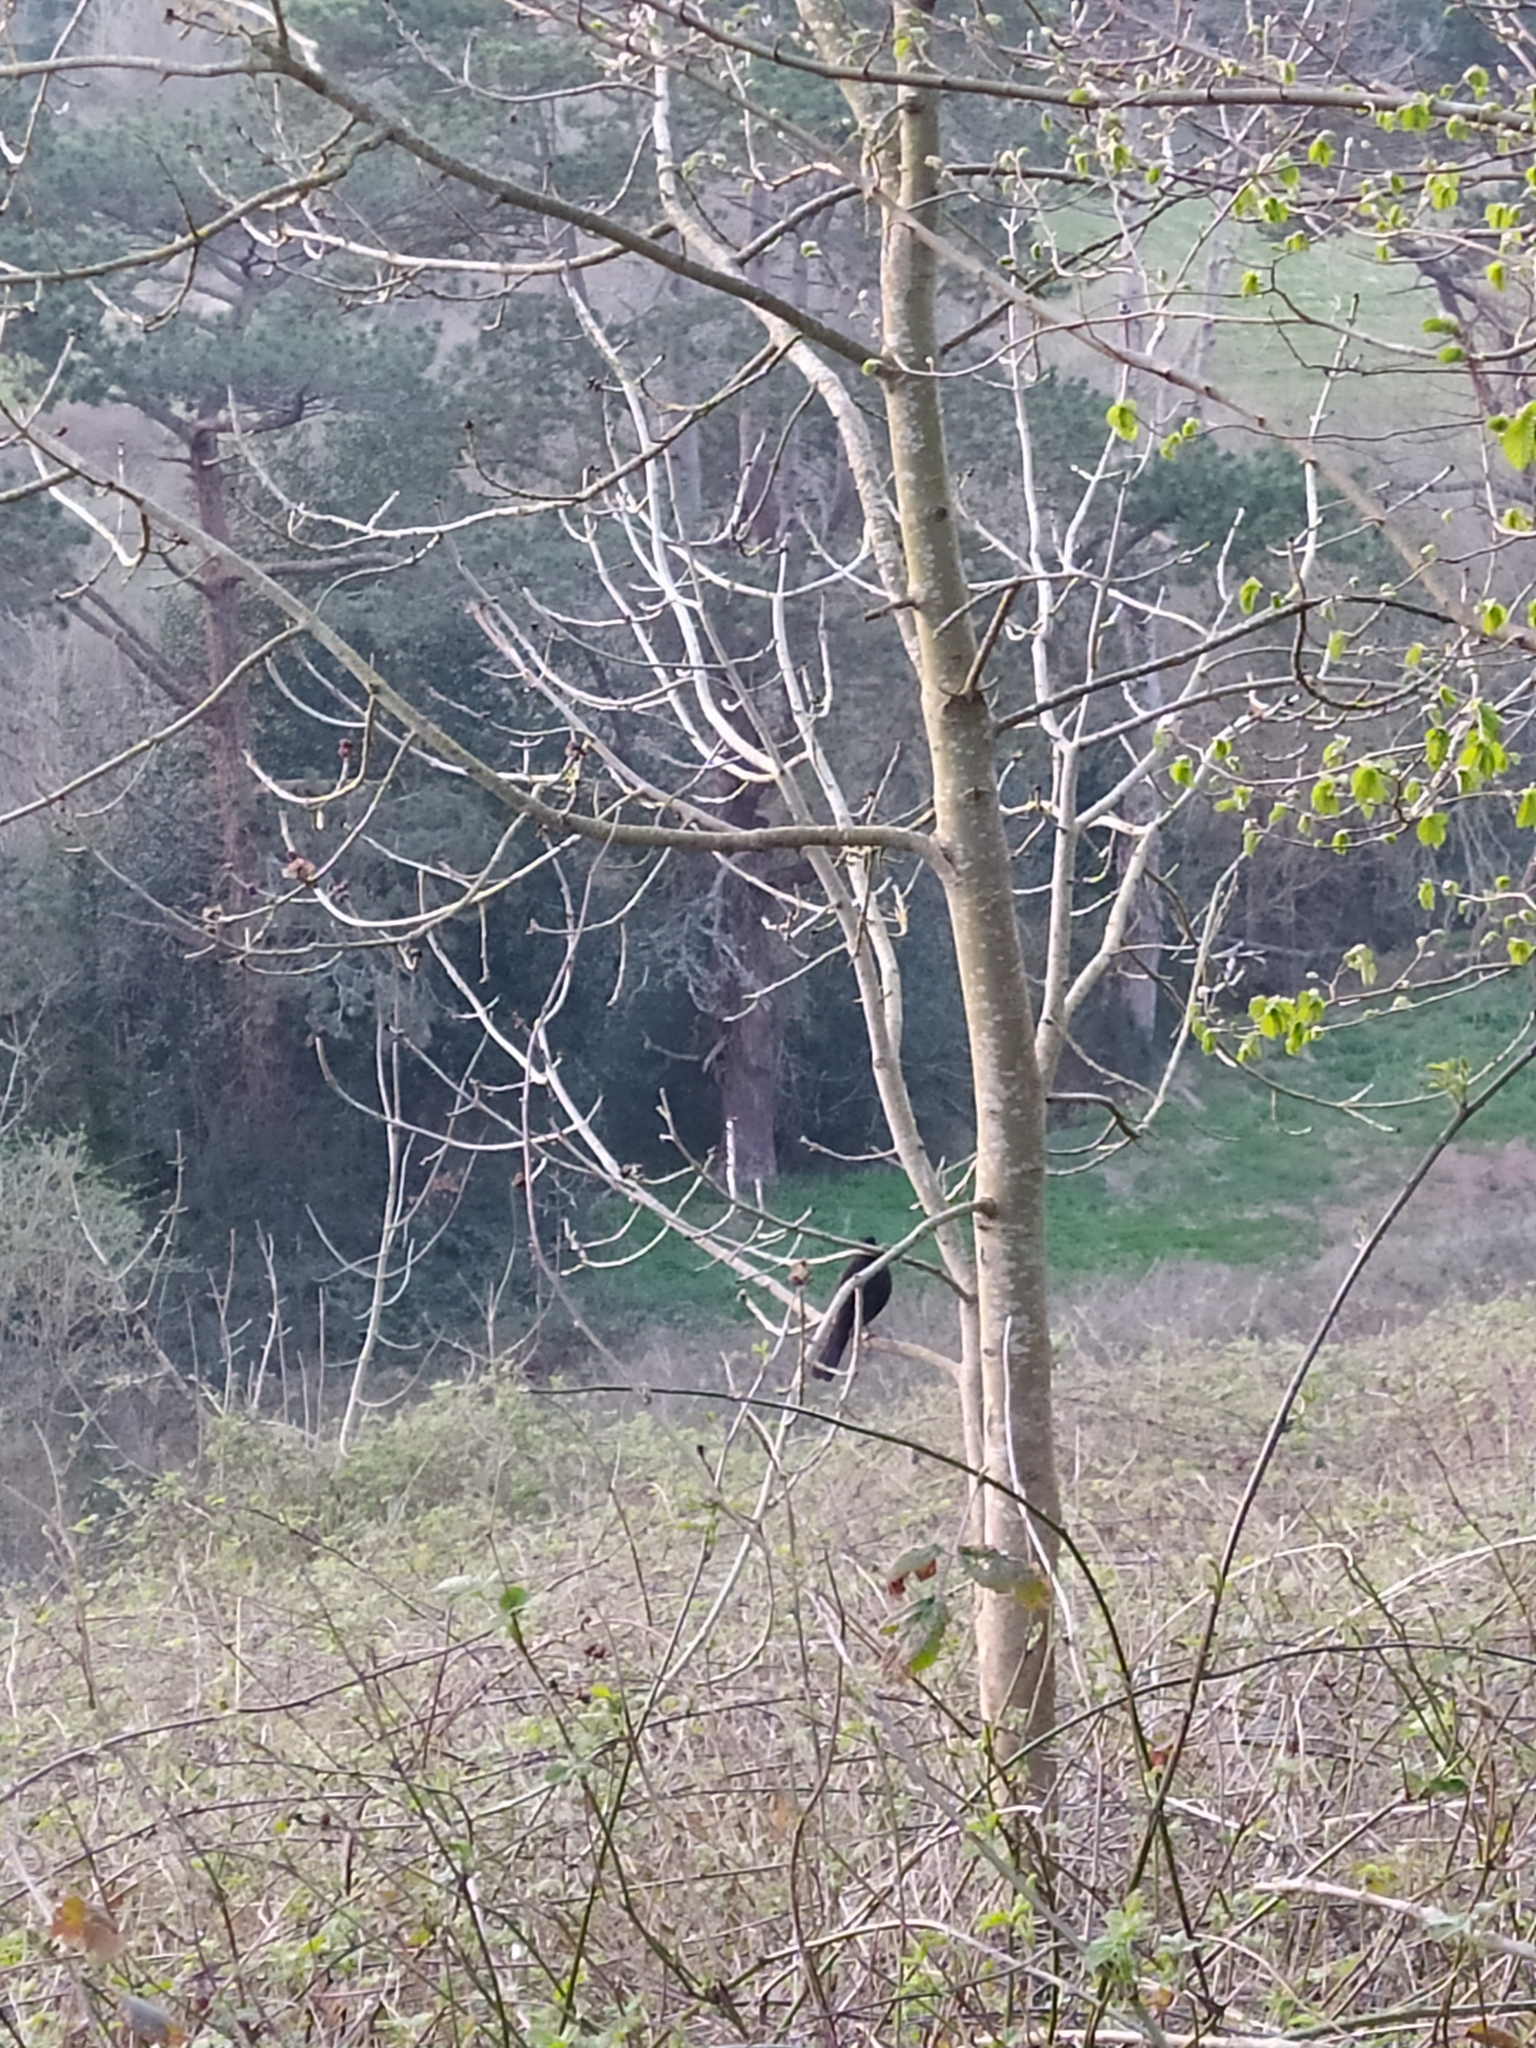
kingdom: Animalia
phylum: Chordata
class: Aves
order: Passeriformes
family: Turdidae
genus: Turdus
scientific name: Turdus merula
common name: Common blackbird
